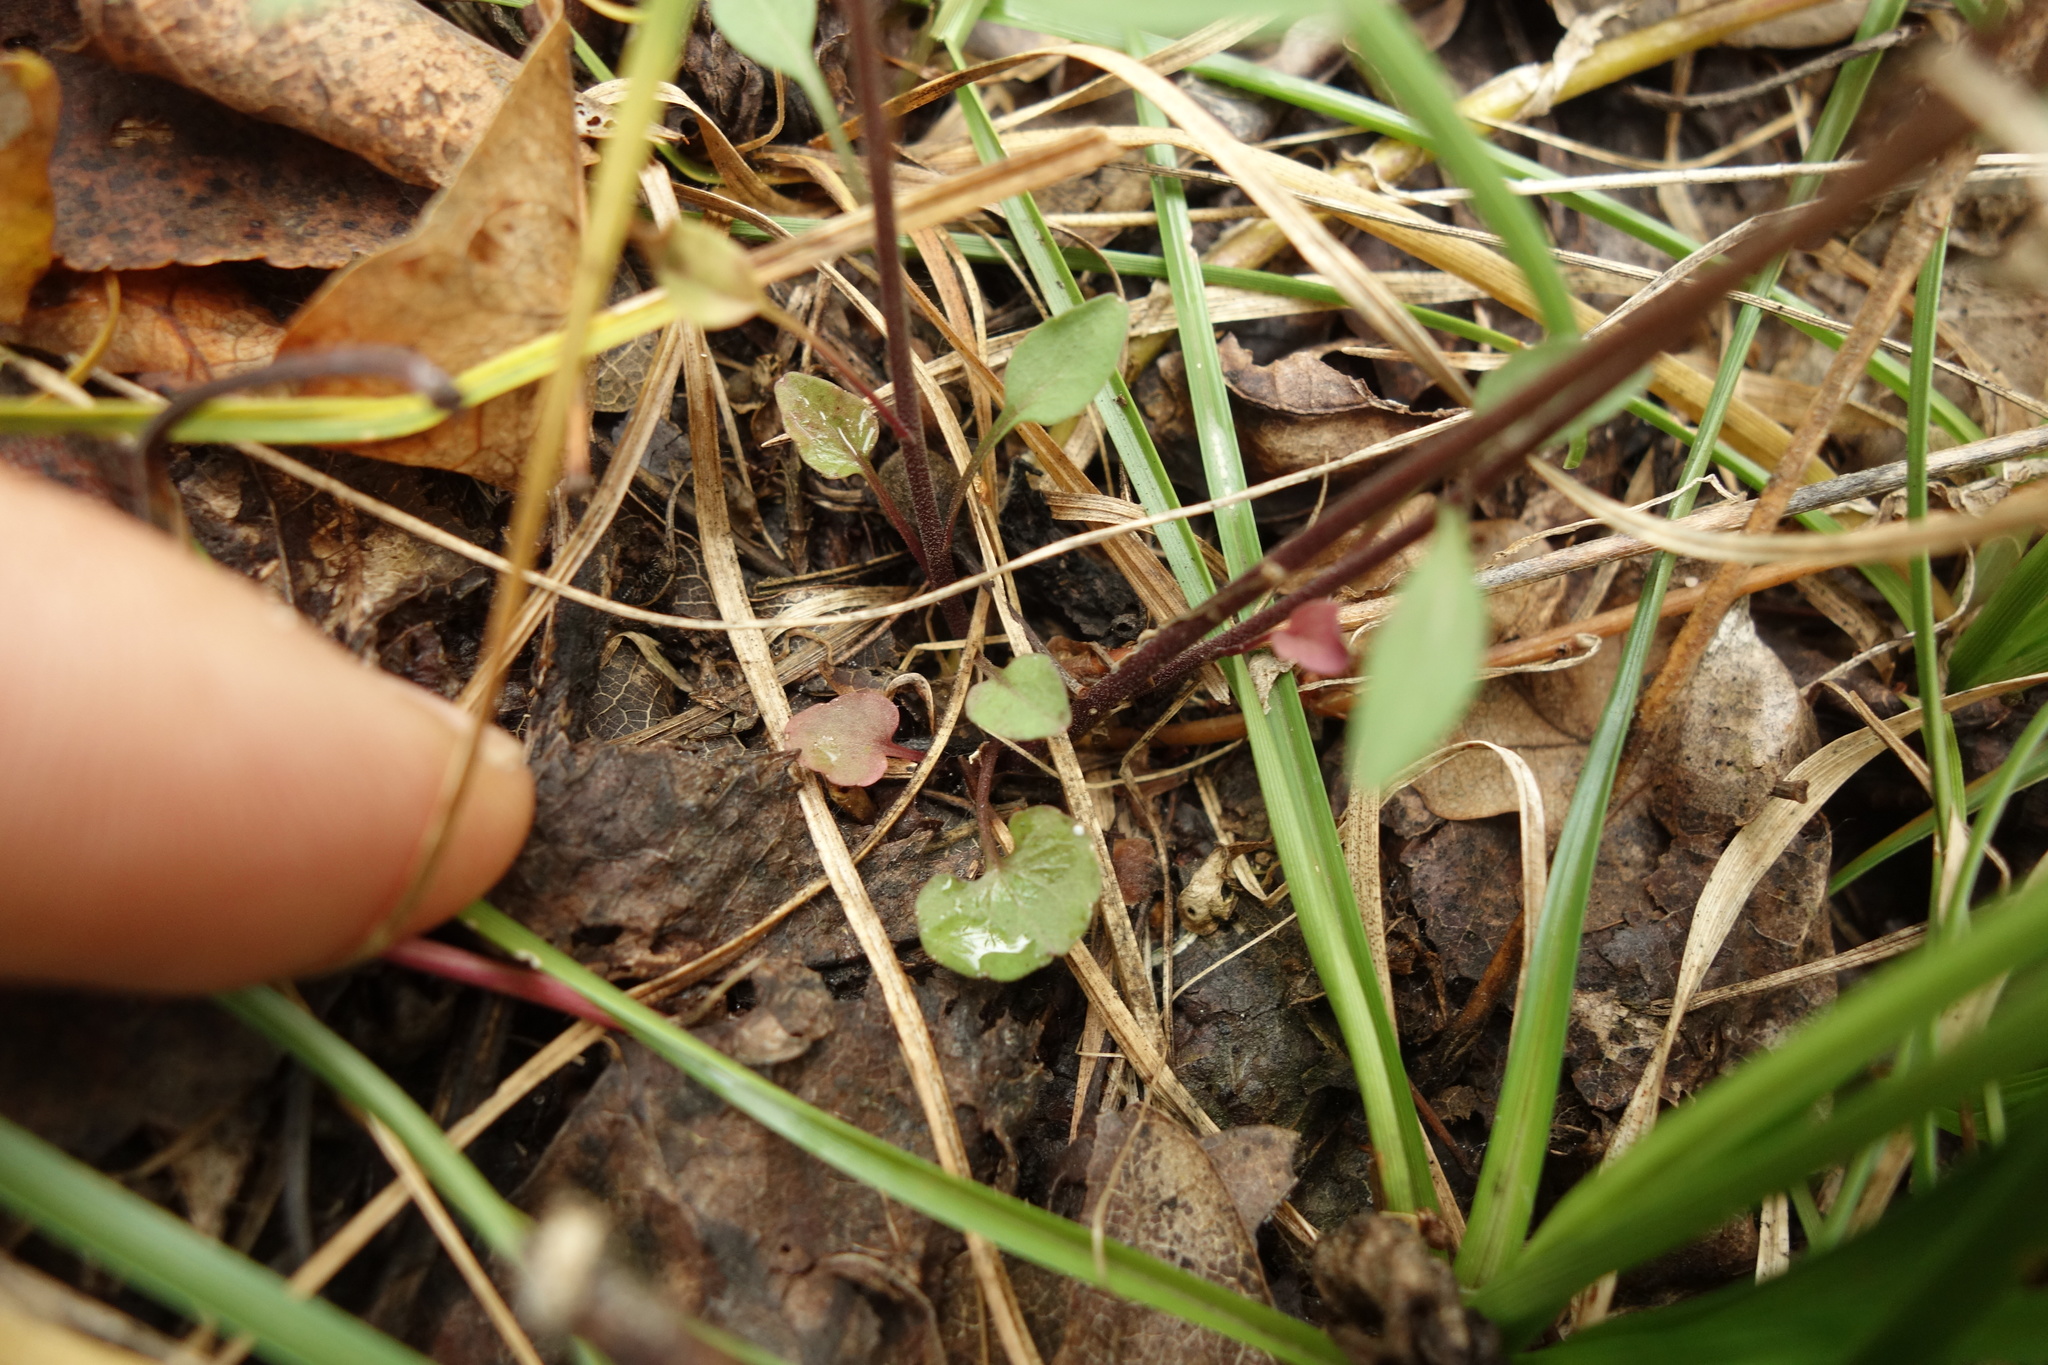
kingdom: Plantae
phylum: Tracheophyta
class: Magnoliopsida
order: Asterales
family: Campanulaceae
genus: Campanula
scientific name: Campanula rotundifolia
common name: Harebell
